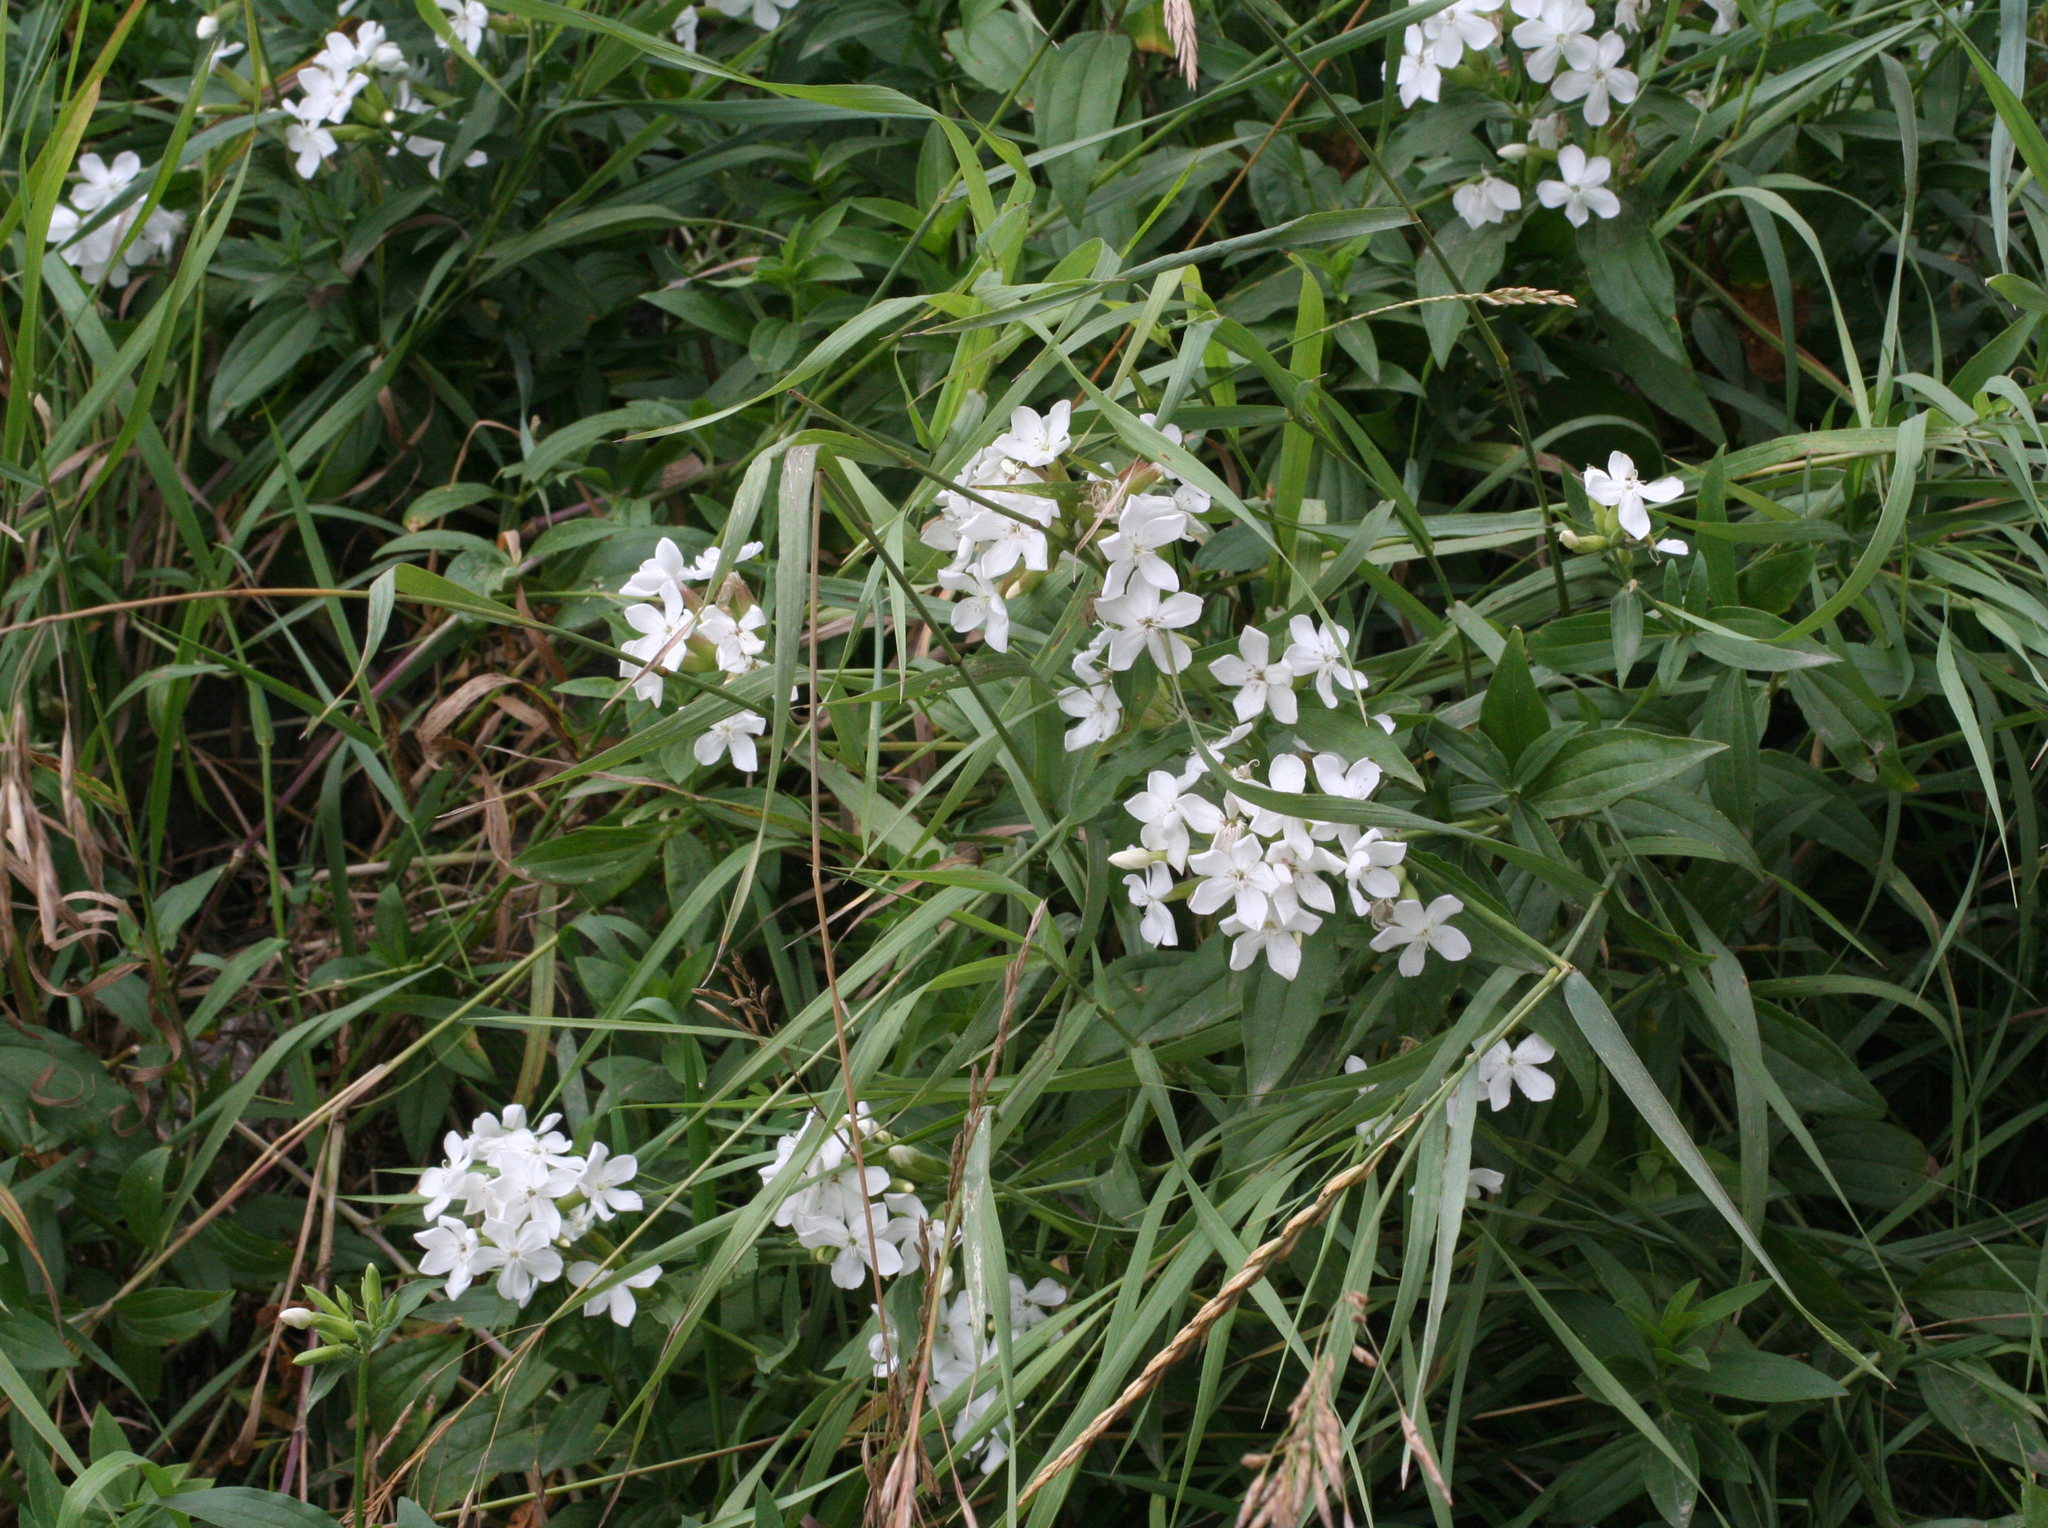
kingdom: Plantae
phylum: Tracheophyta
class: Magnoliopsida
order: Caryophyllales
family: Caryophyllaceae
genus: Saponaria
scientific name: Saponaria officinalis
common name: Soapwort
